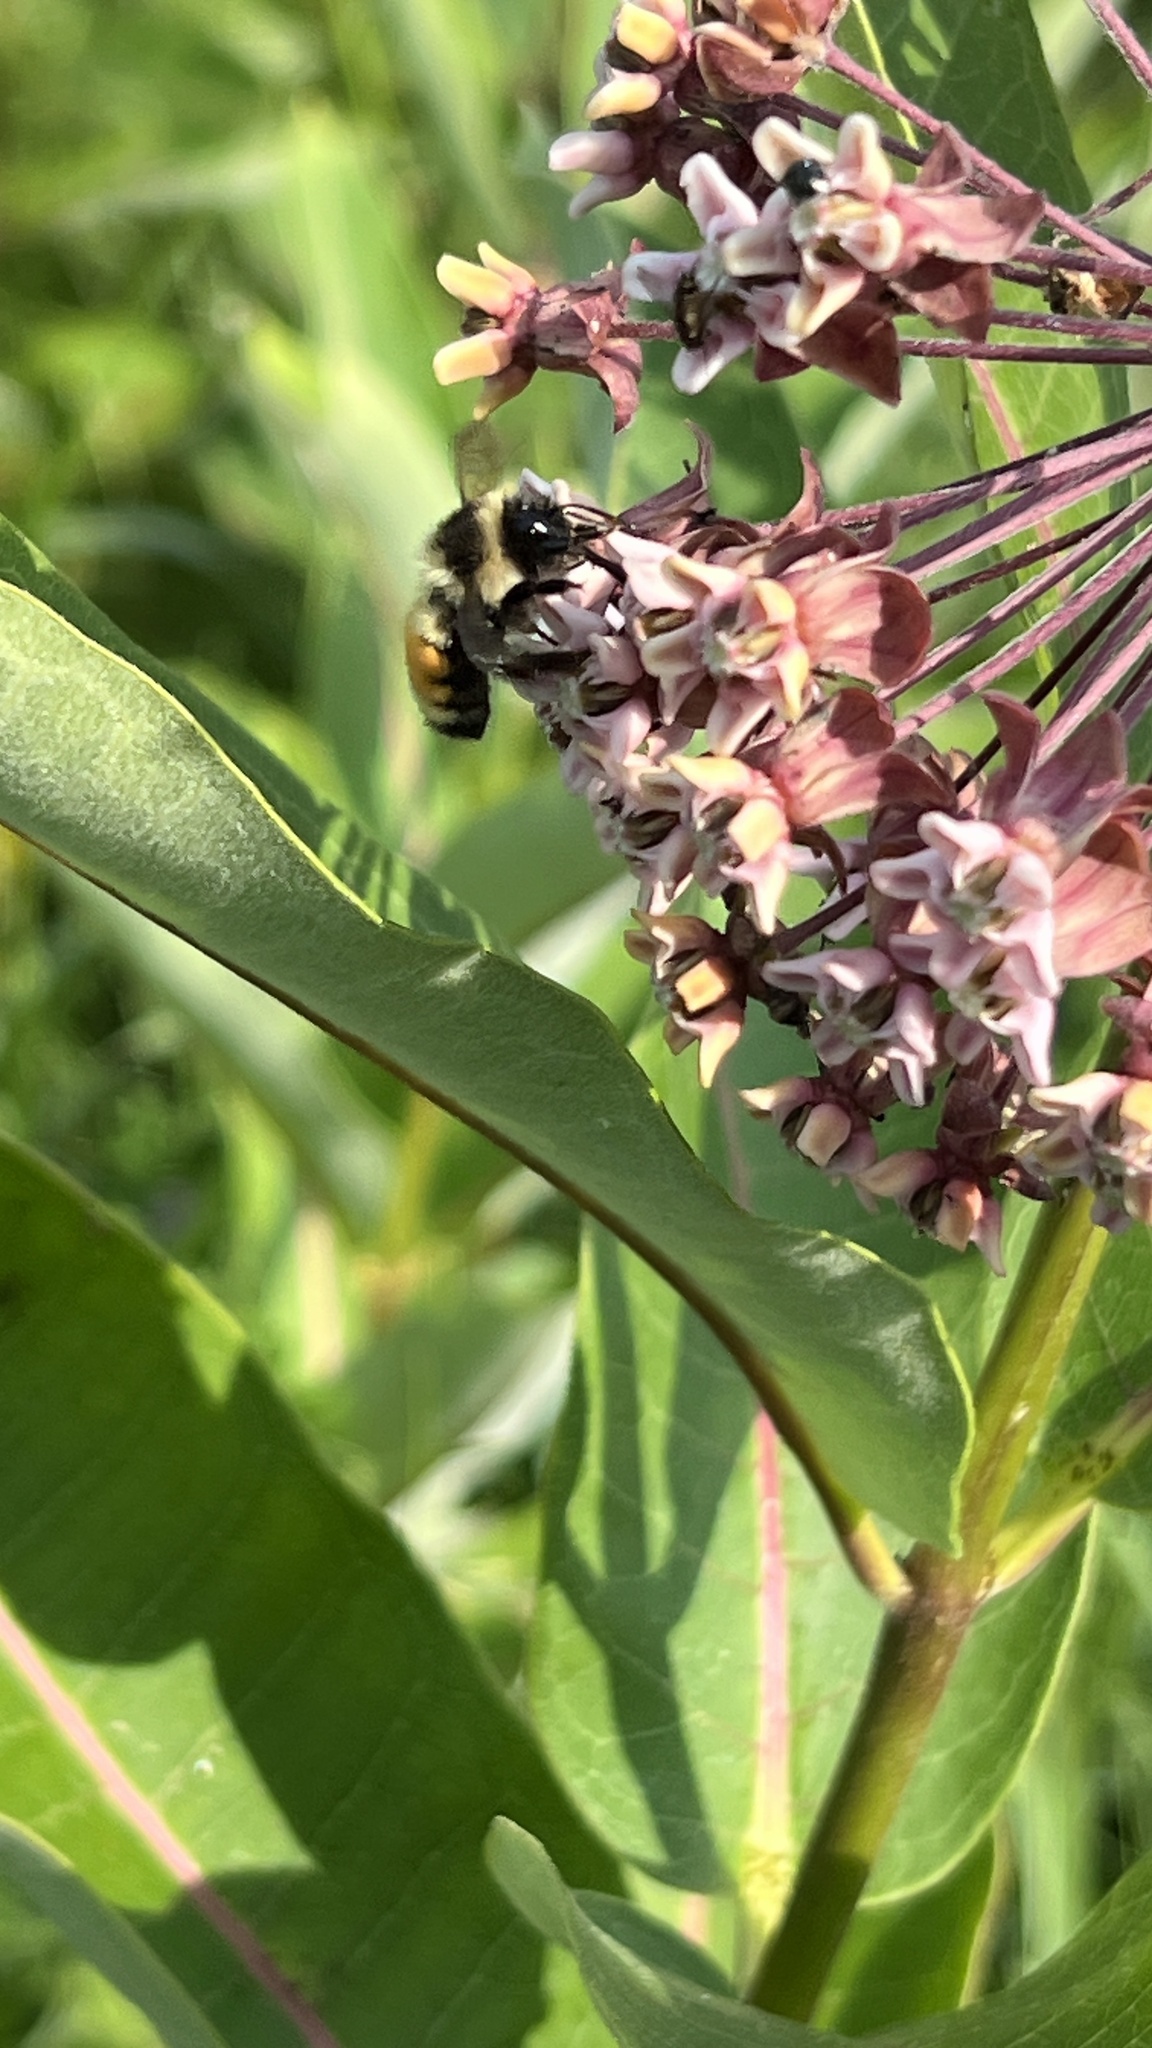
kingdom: Animalia
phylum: Arthropoda
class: Insecta
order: Hymenoptera
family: Apidae
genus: Bombus
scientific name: Bombus ternarius
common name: Tri-colored bumble bee
